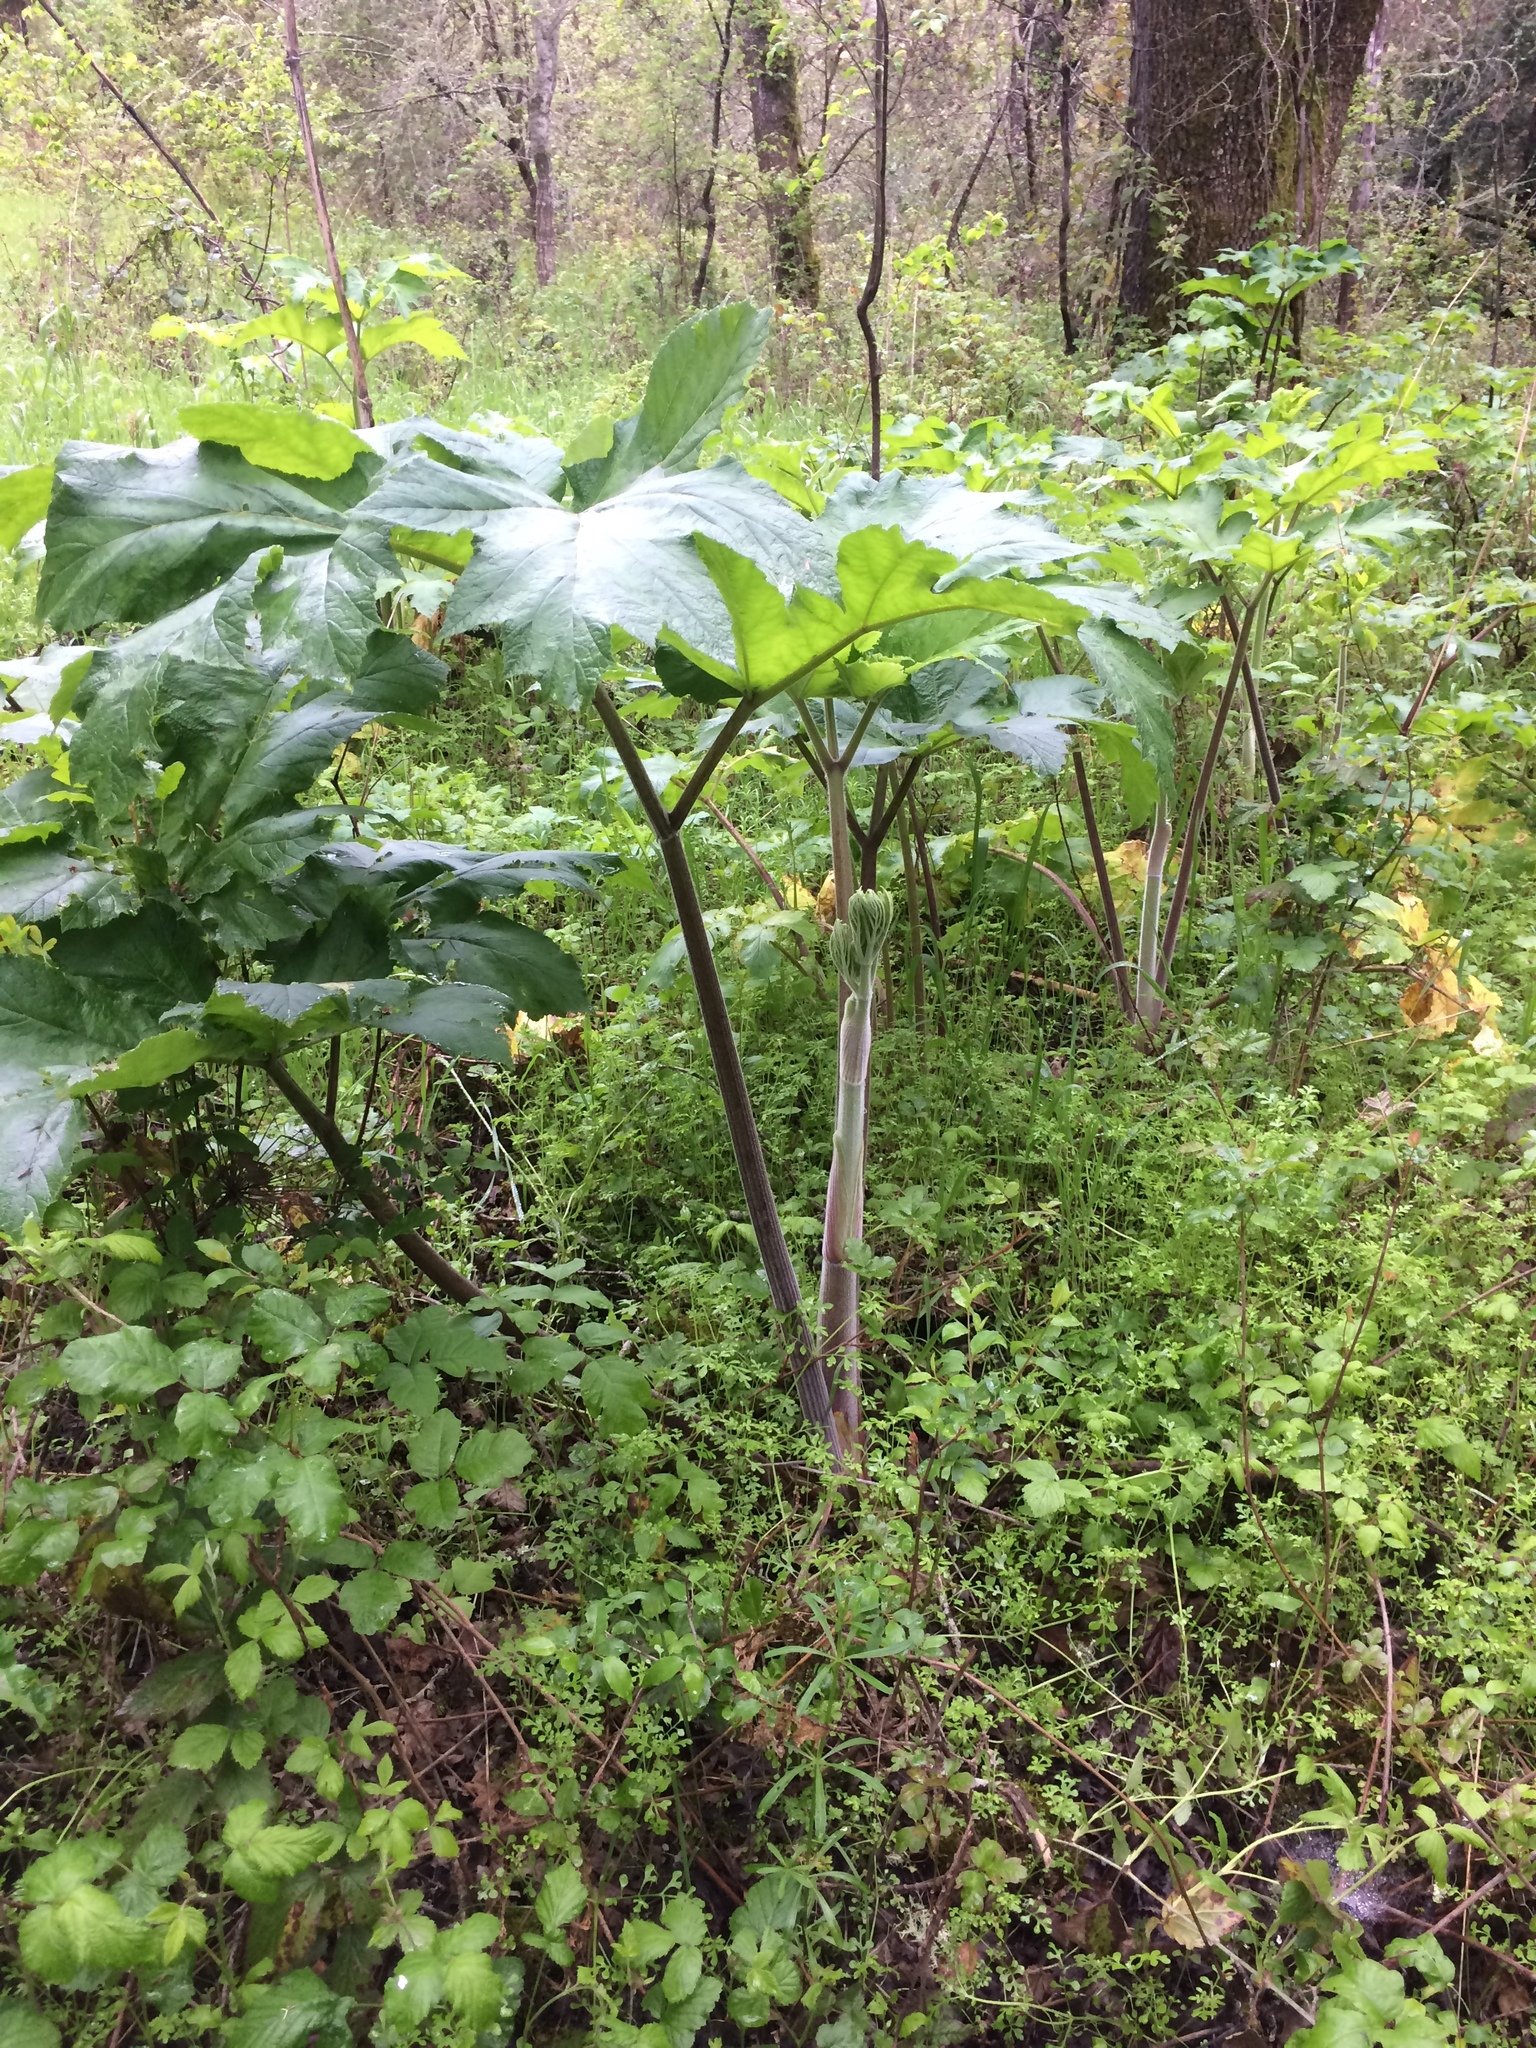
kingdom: Plantae
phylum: Tracheophyta
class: Magnoliopsida
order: Apiales
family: Apiaceae
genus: Heracleum
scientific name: Heracleum maximum
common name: American cow parsnip
